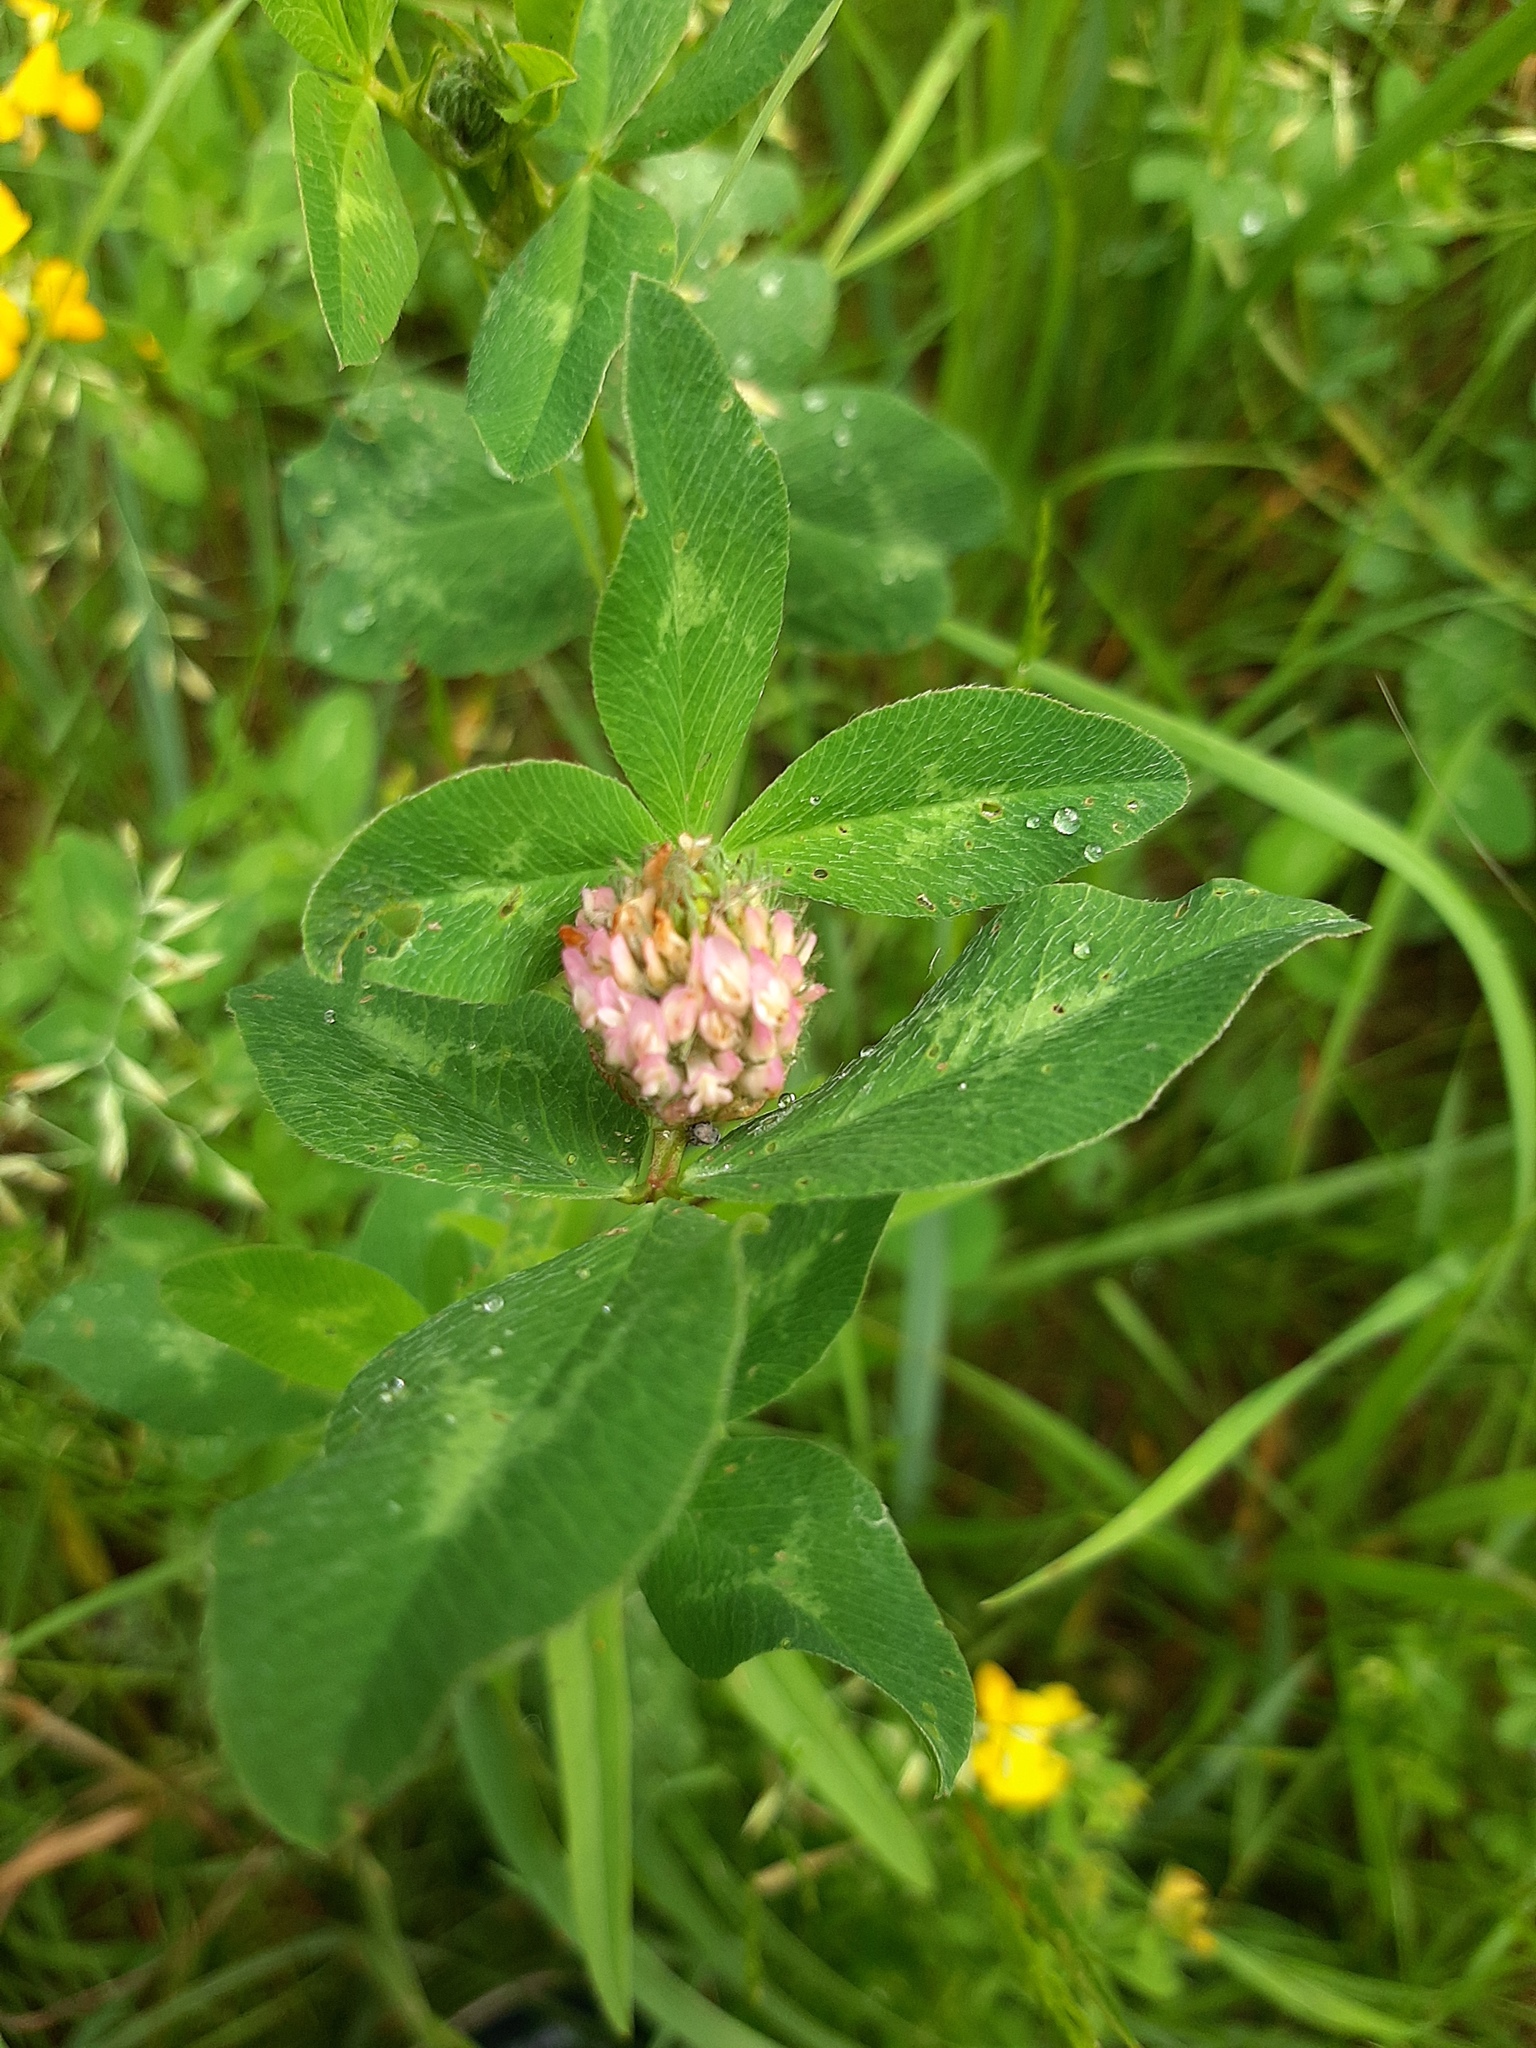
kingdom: Plantae
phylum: Tracheophyta
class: Magnoliopsida
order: Fabales
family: Fabaceae
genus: Trifolium
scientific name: Trifolium pratense
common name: Red clover
